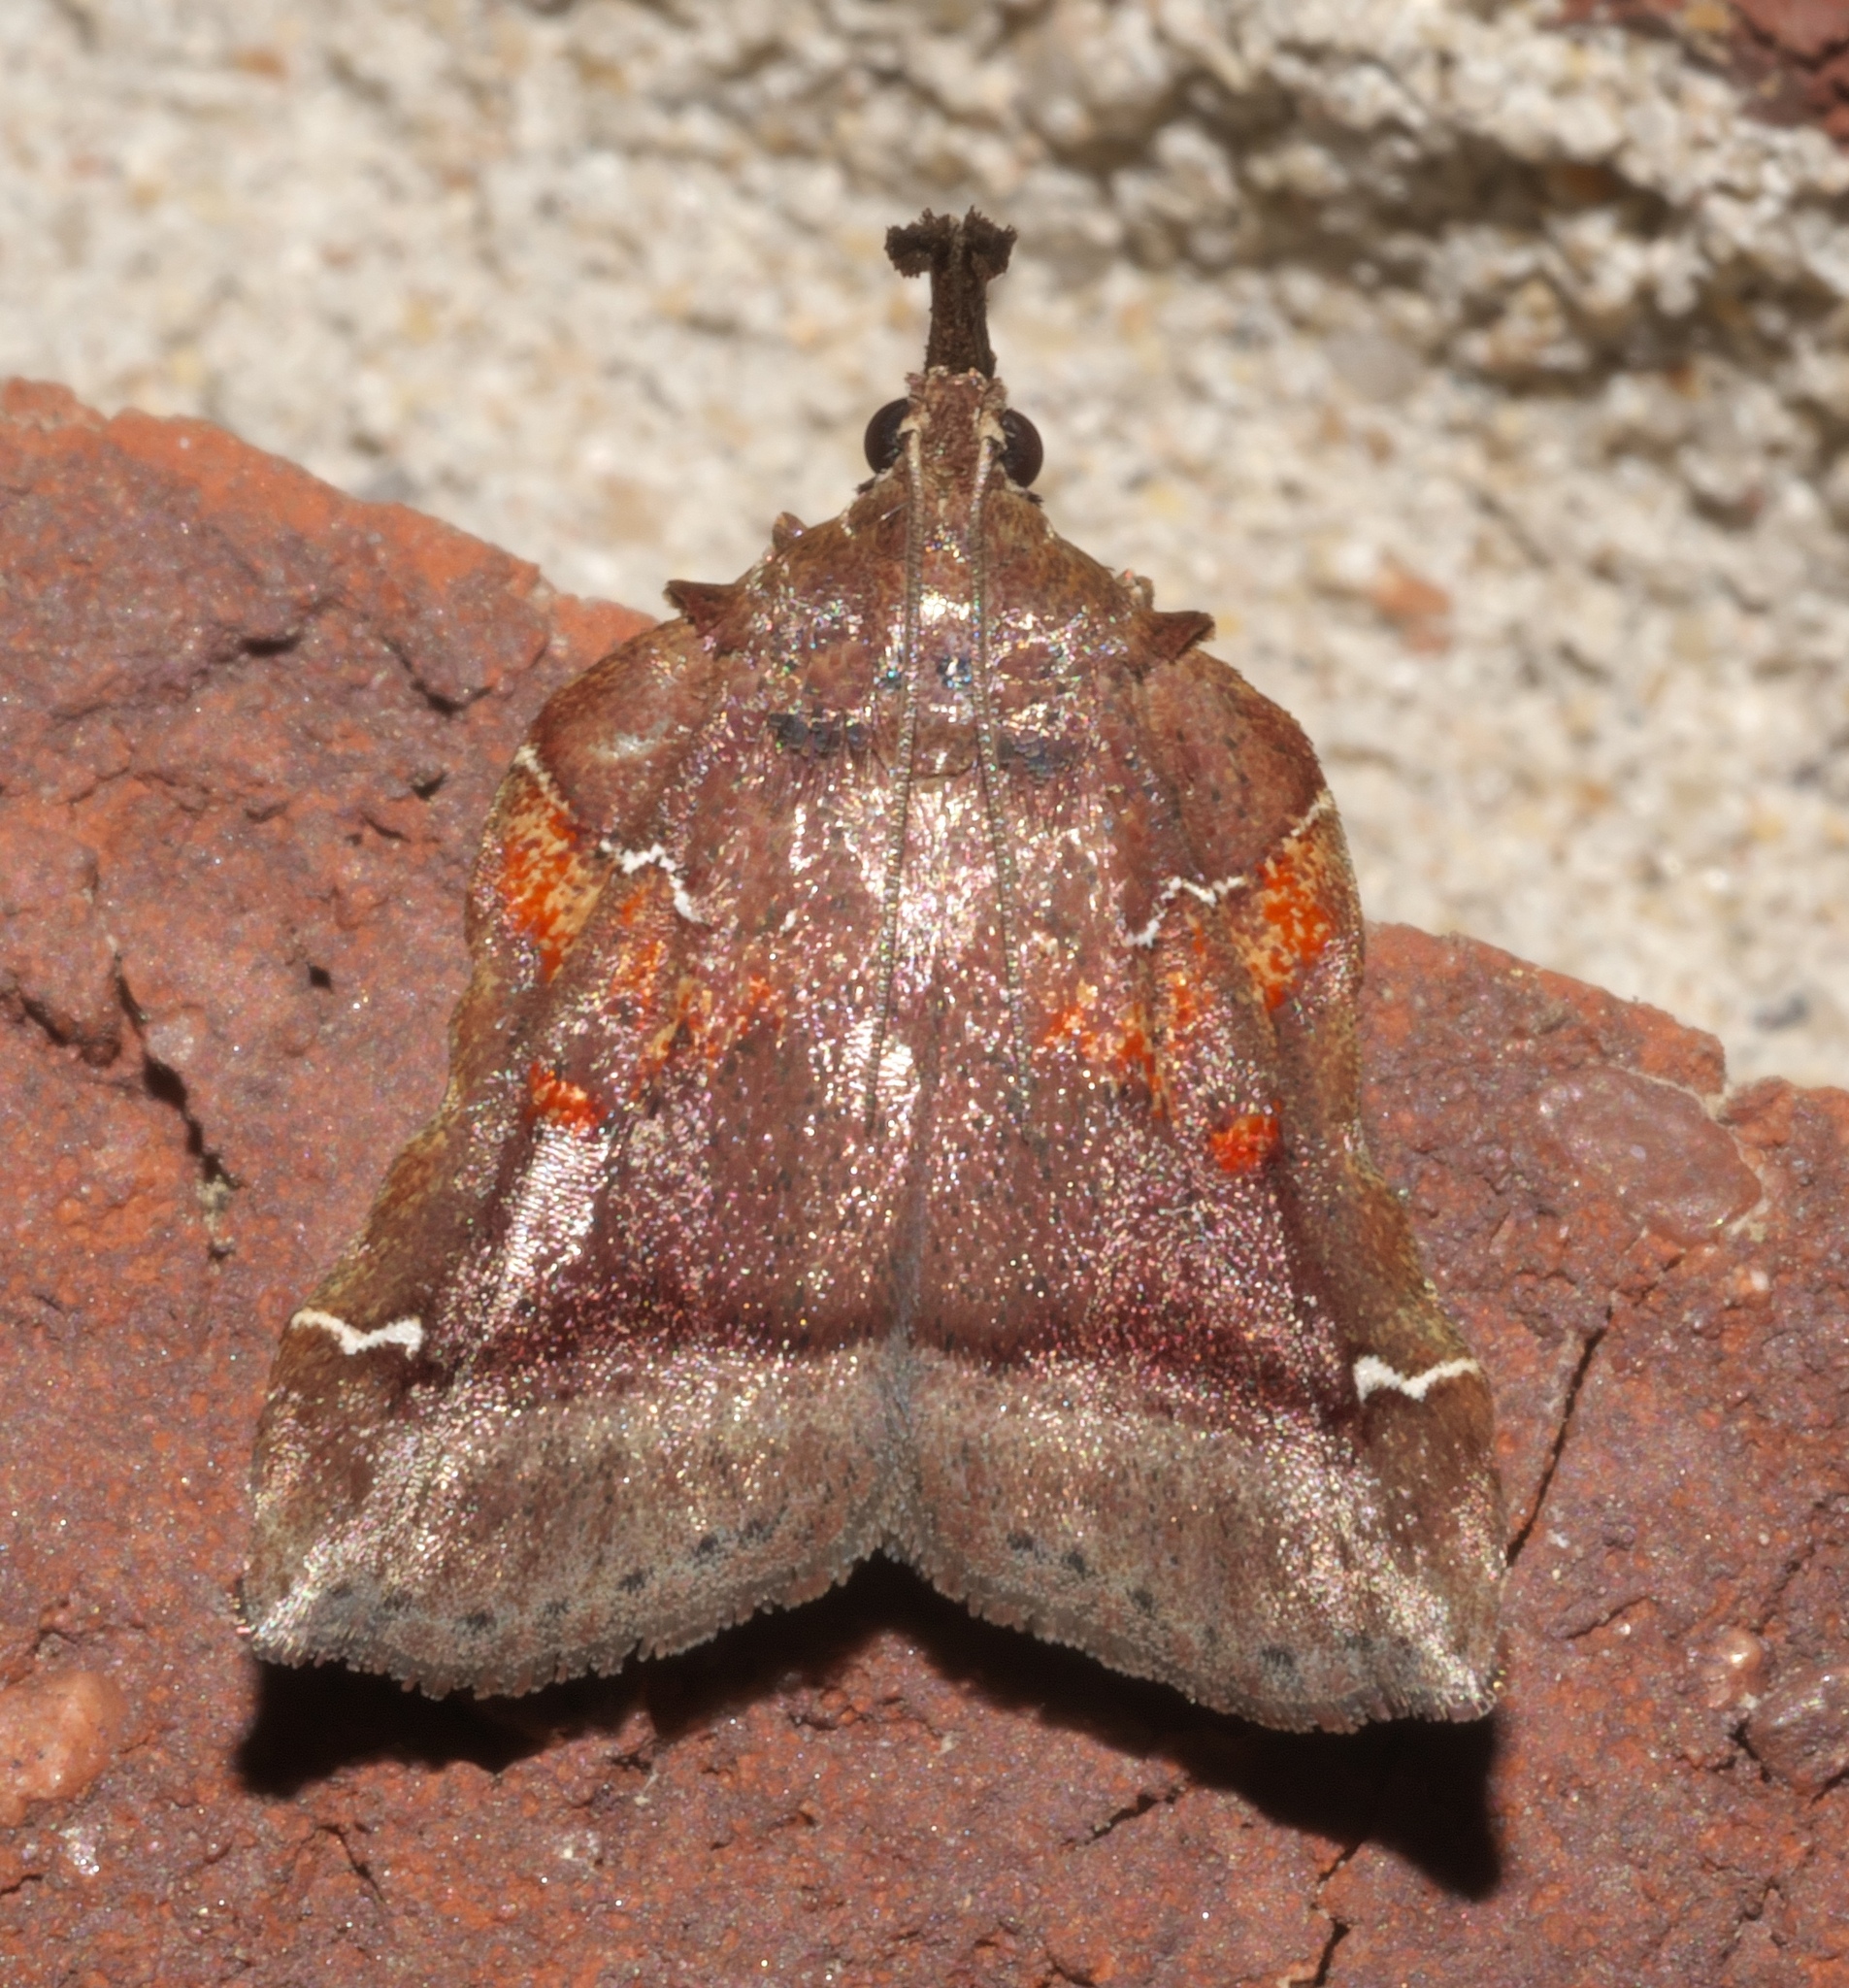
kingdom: Animalia
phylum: Arthropoda
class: Insecta
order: Lepidoptera
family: Pyralidae
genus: Clydonopteron
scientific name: Clydonopteron sacculana
